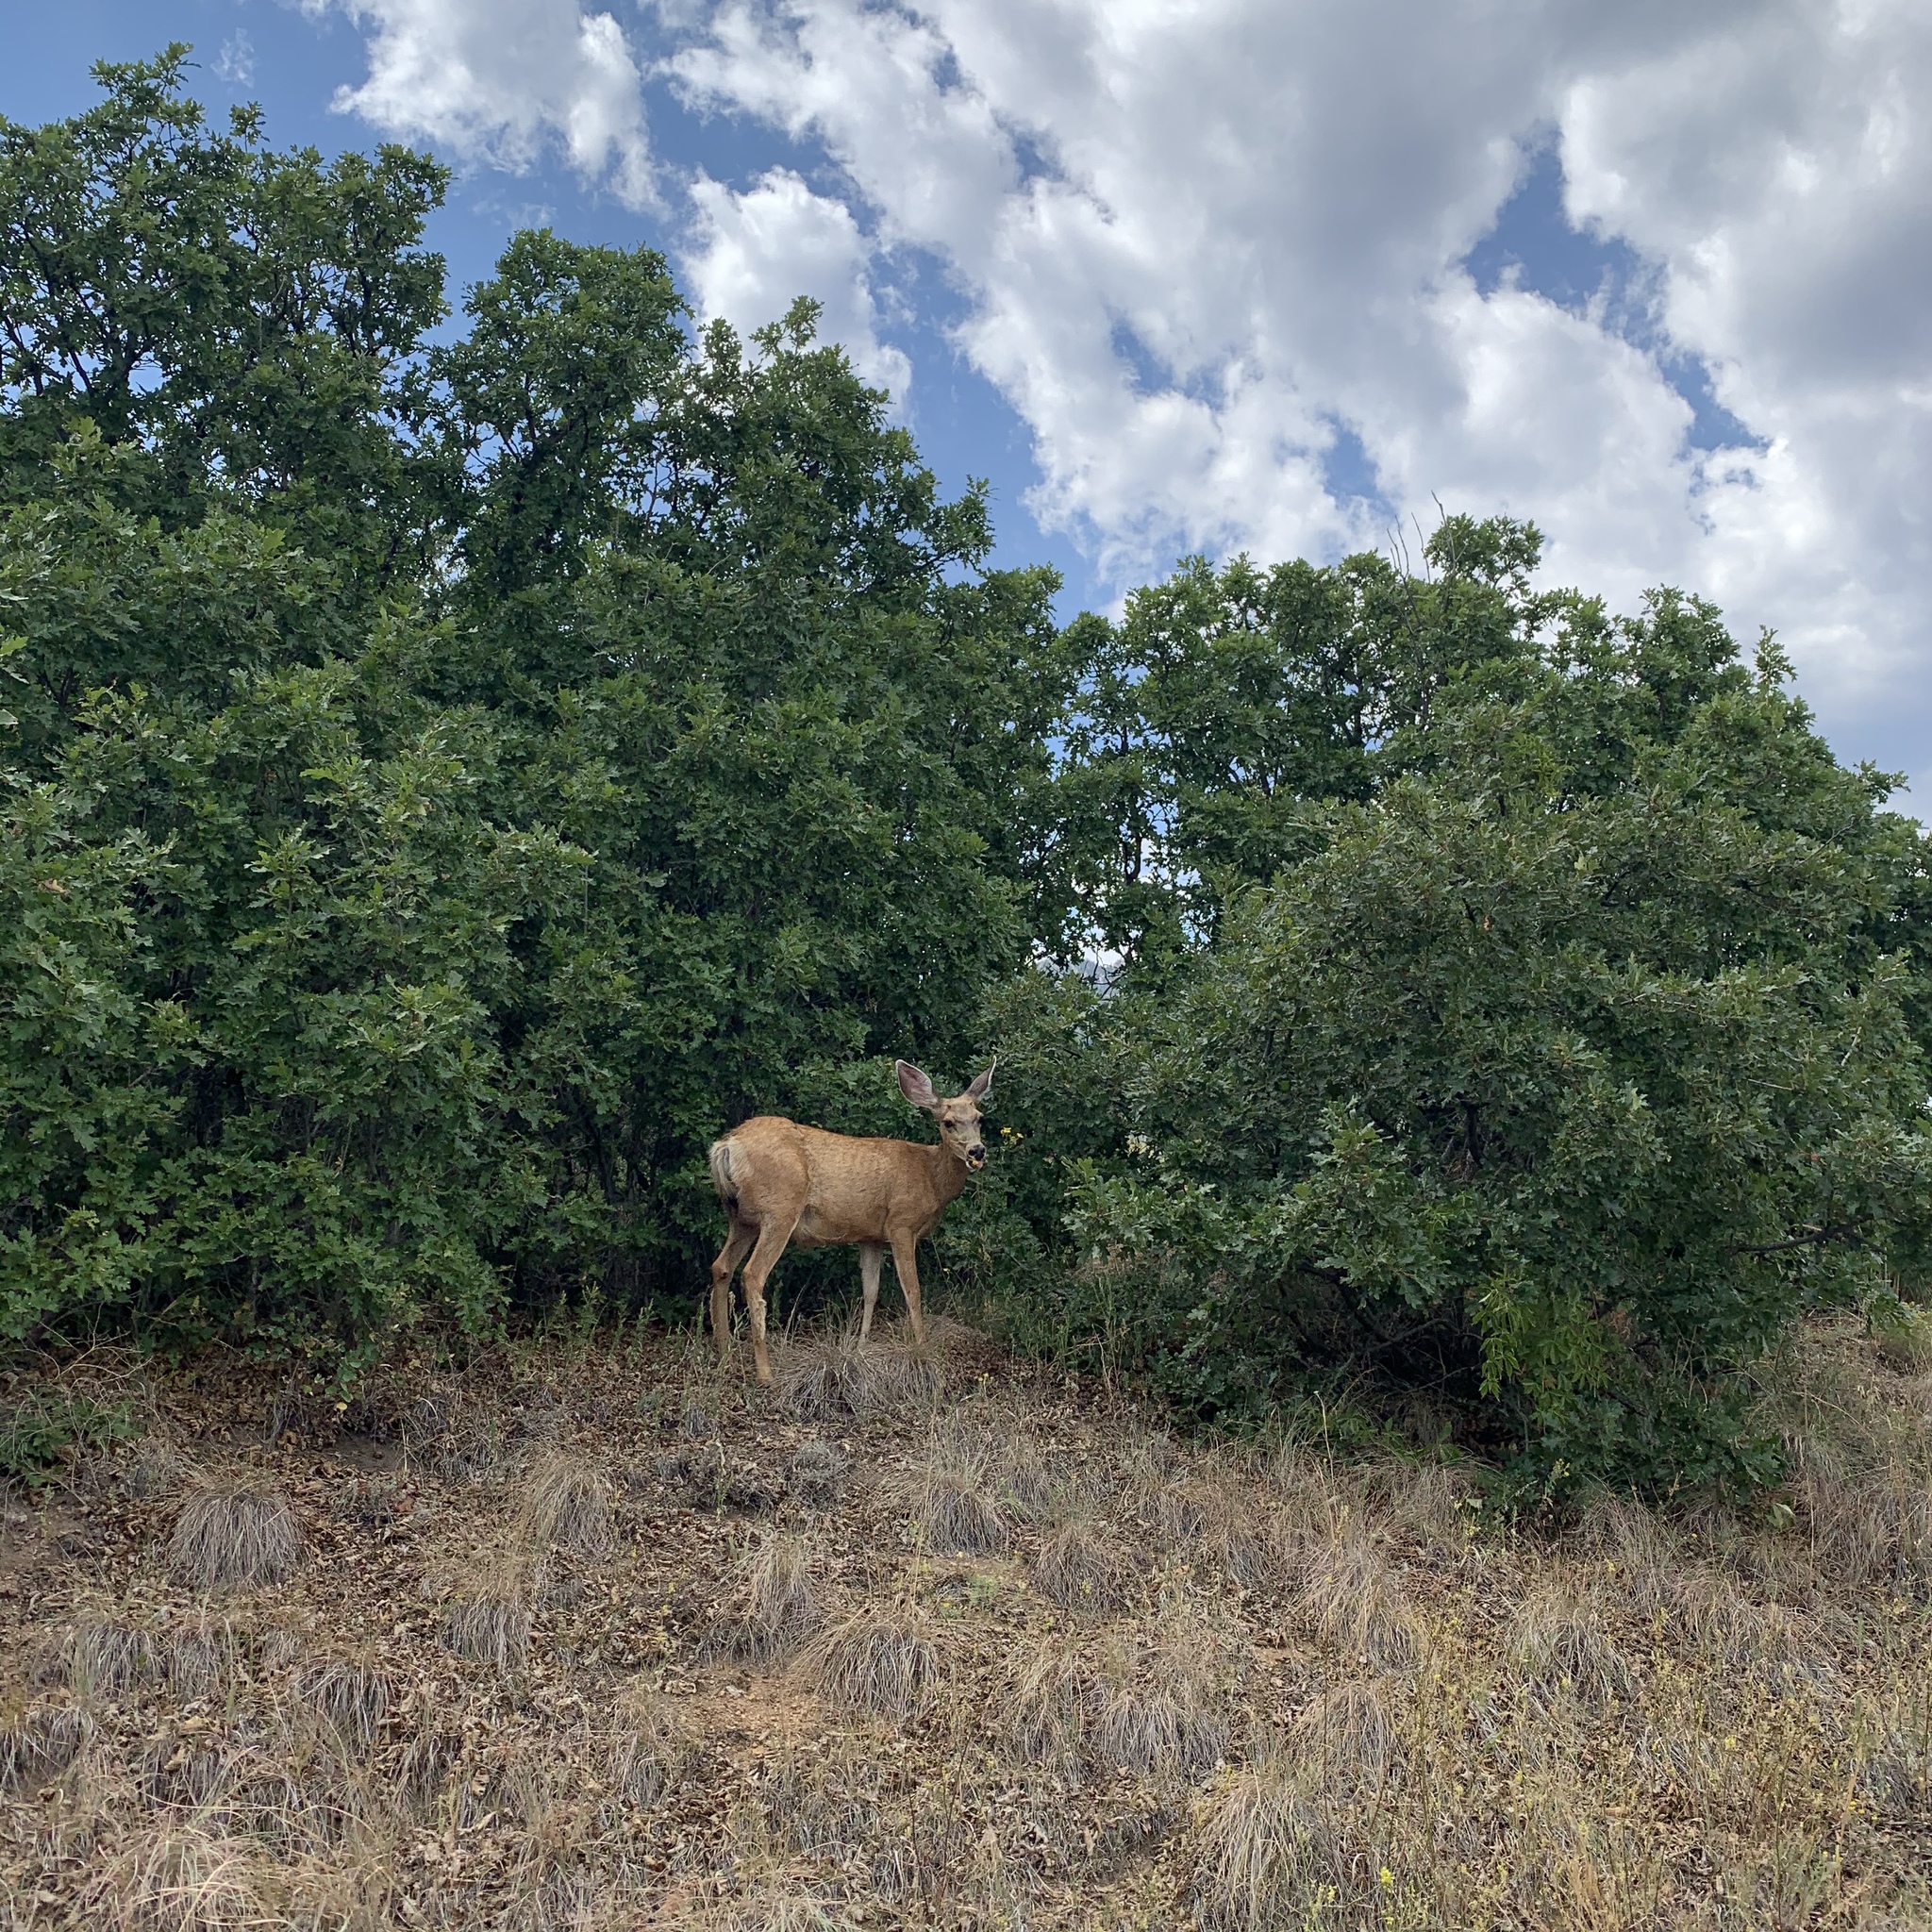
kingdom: Animalia
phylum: Chordata
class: Mammalia
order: Artiodactyla
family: Cervidae
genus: Odocoileus
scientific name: Odocoileus hemionus
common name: Mule deer
